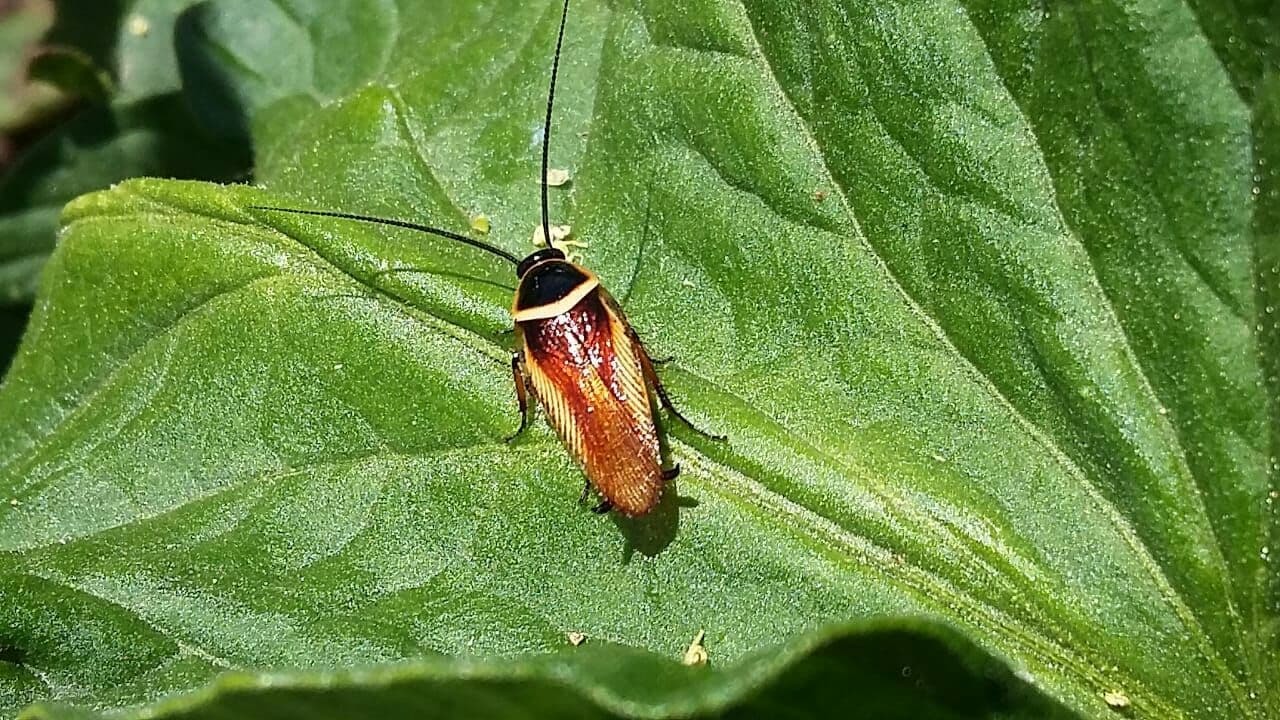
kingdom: Animalia
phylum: Arthropoda
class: Insecta
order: Blattodea
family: Ectobiidae
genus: Pseudomops
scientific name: Pseudomops neglectus
